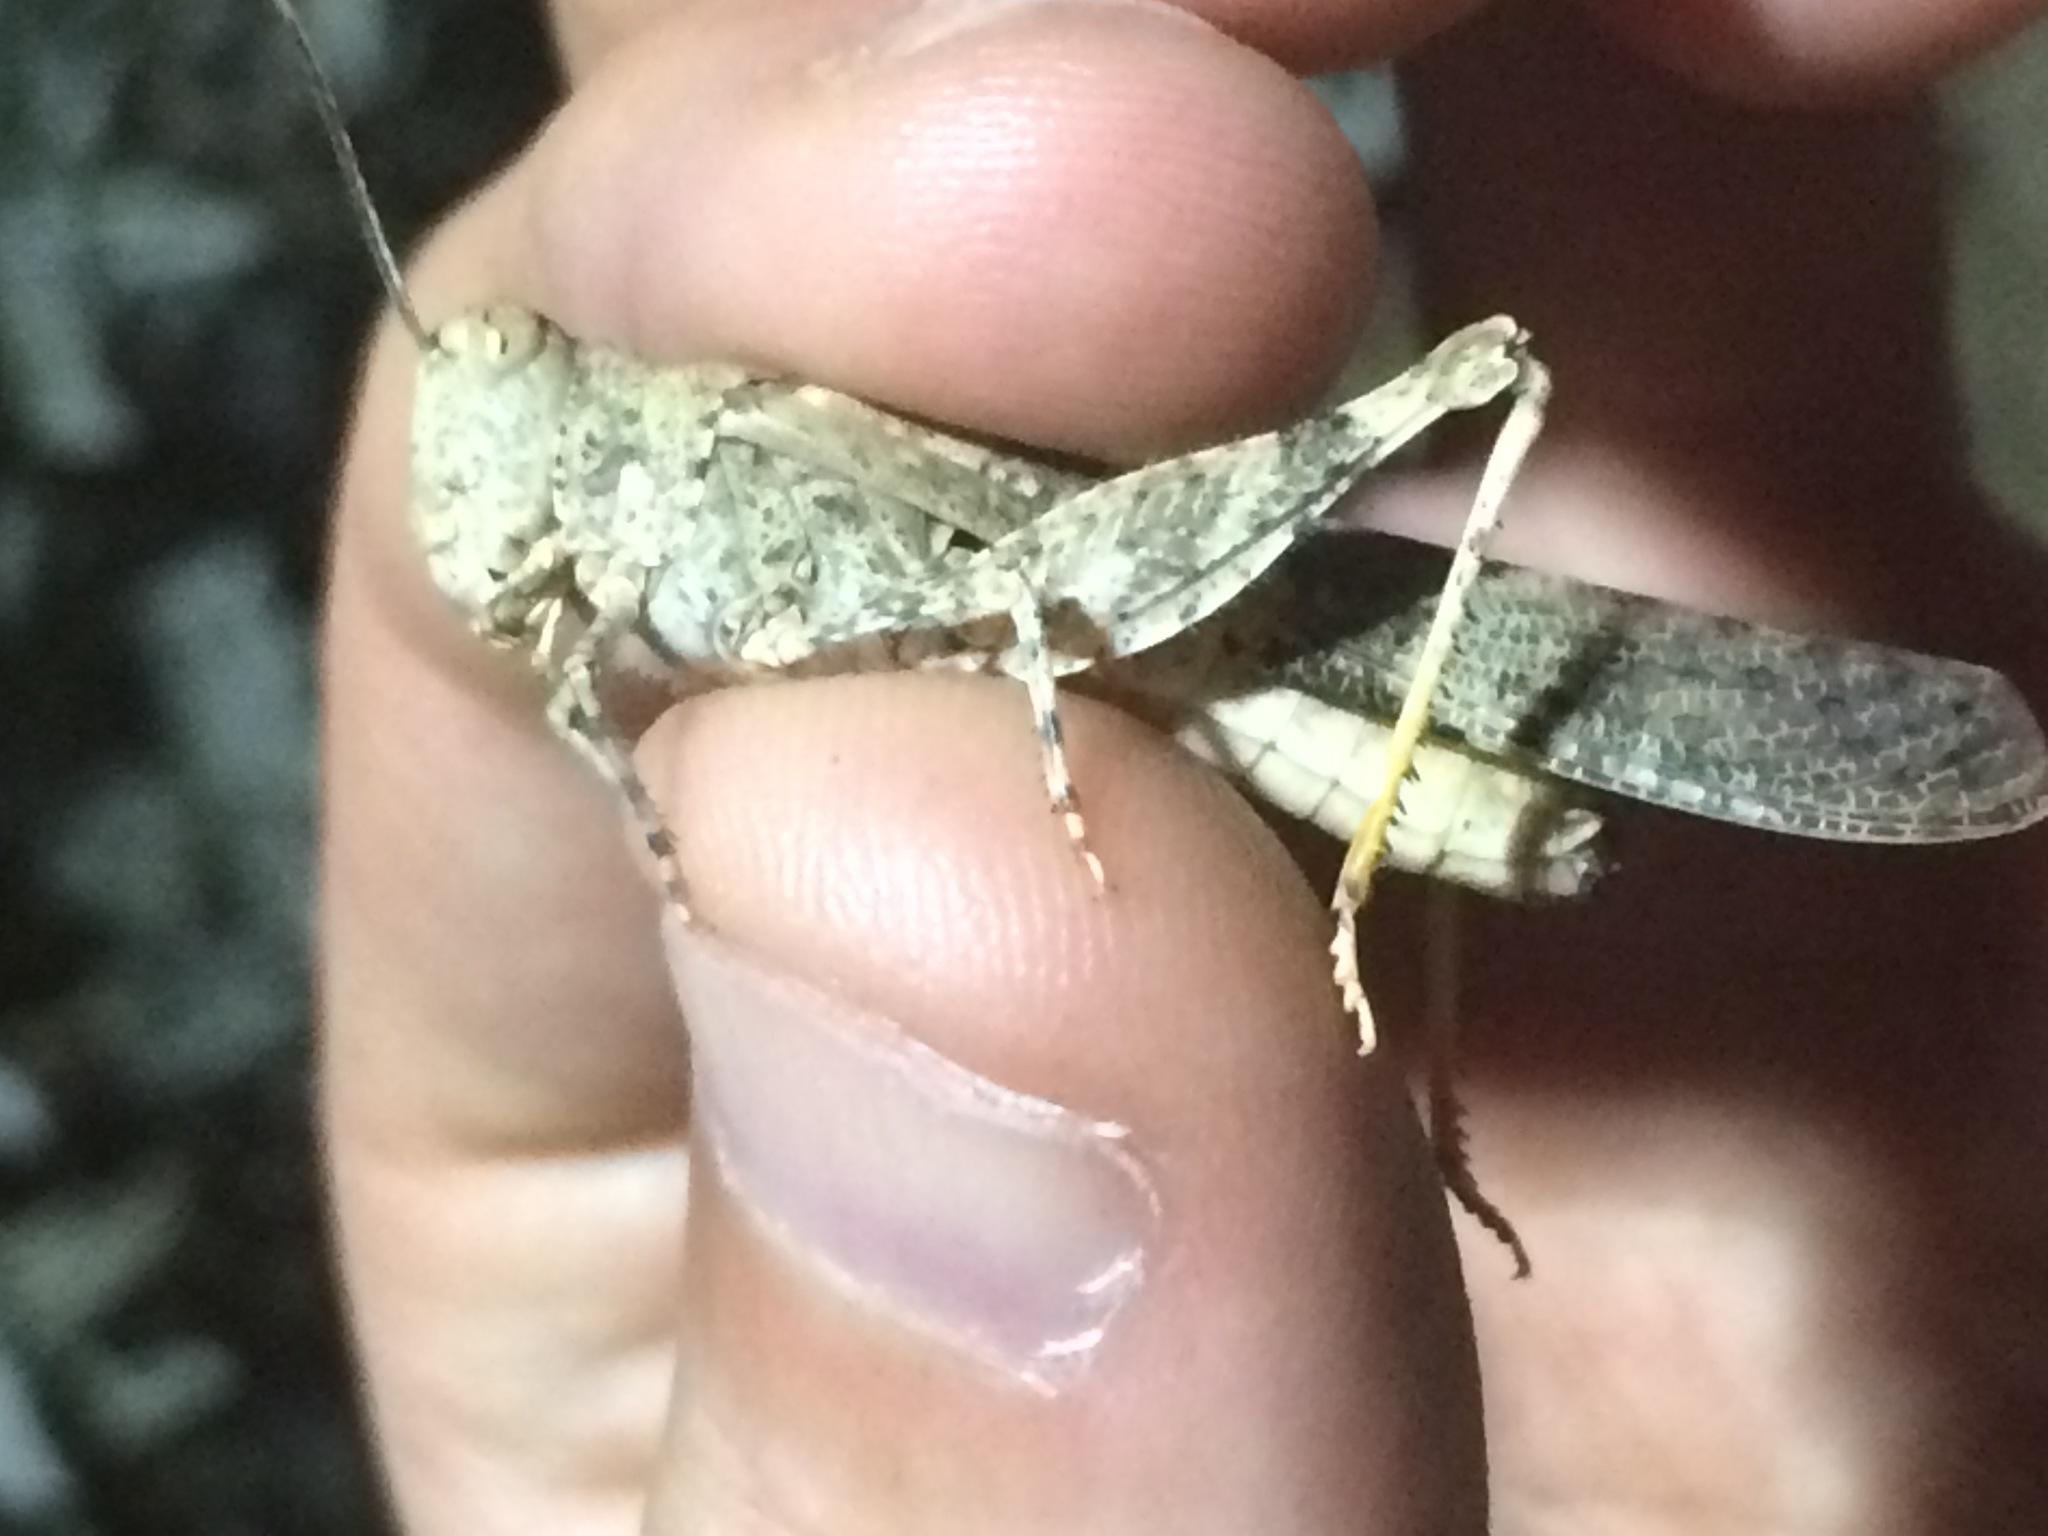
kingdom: Animalia
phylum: Arthropoda
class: Insecta
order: Orthoptera
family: Acrididae
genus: Trimerotropis
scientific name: Trimerotropis pallidipennis
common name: Pallid-winged grasshopper
